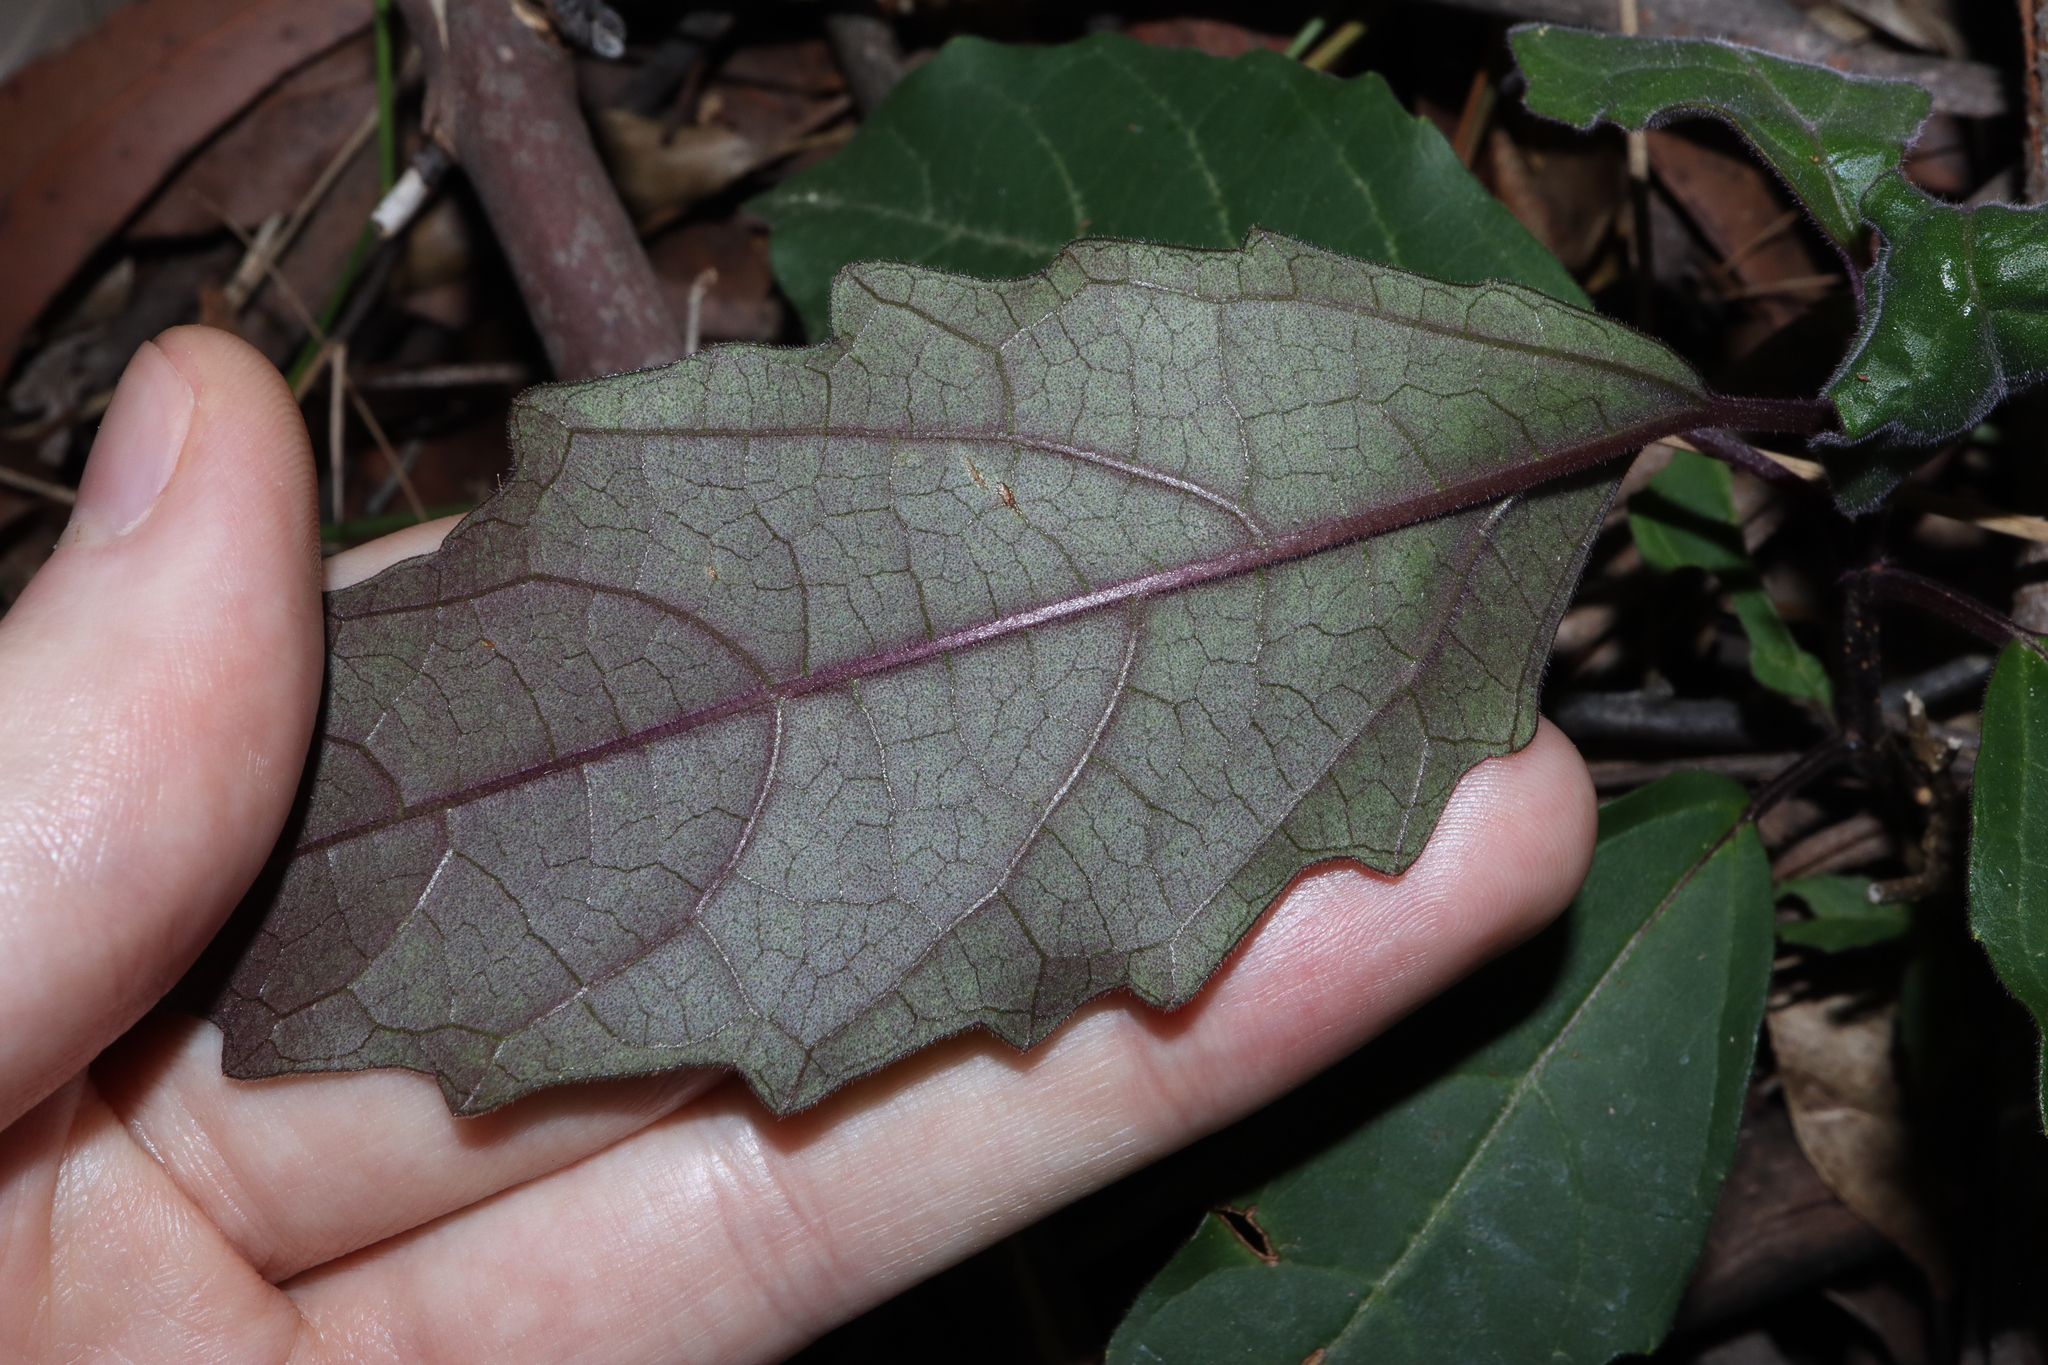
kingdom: Plantae
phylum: Tracheophyta
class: Magnoliopsida
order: Lamiales
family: Lamiaceae
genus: Clerodendrum
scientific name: Clerodendrum tomentosum
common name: Hairy clerodendrum
